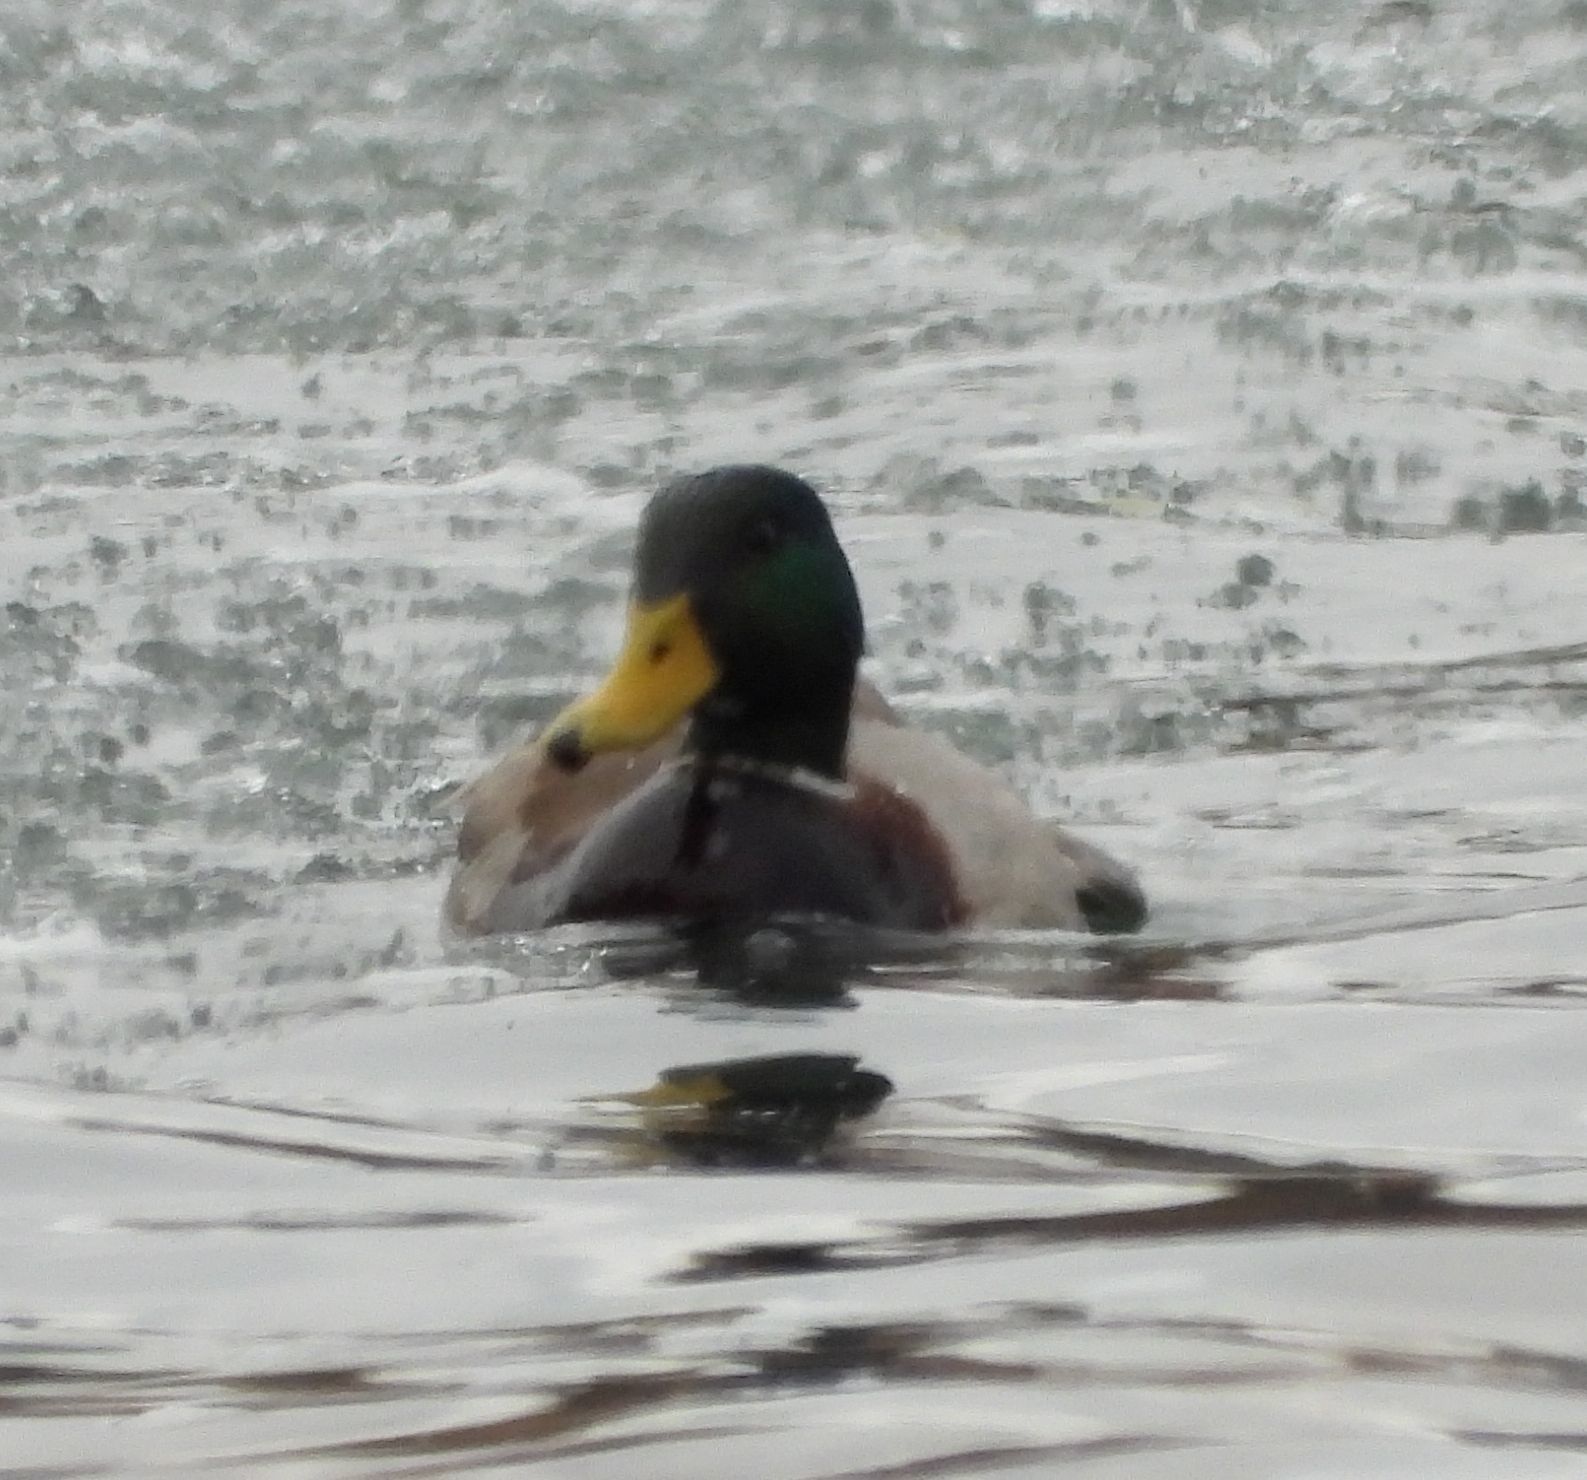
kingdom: Animalia
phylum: Chordata
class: Aves
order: Anseriformes
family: Anatidae
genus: Anas
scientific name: Anas platyrhynchos
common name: Mallard
